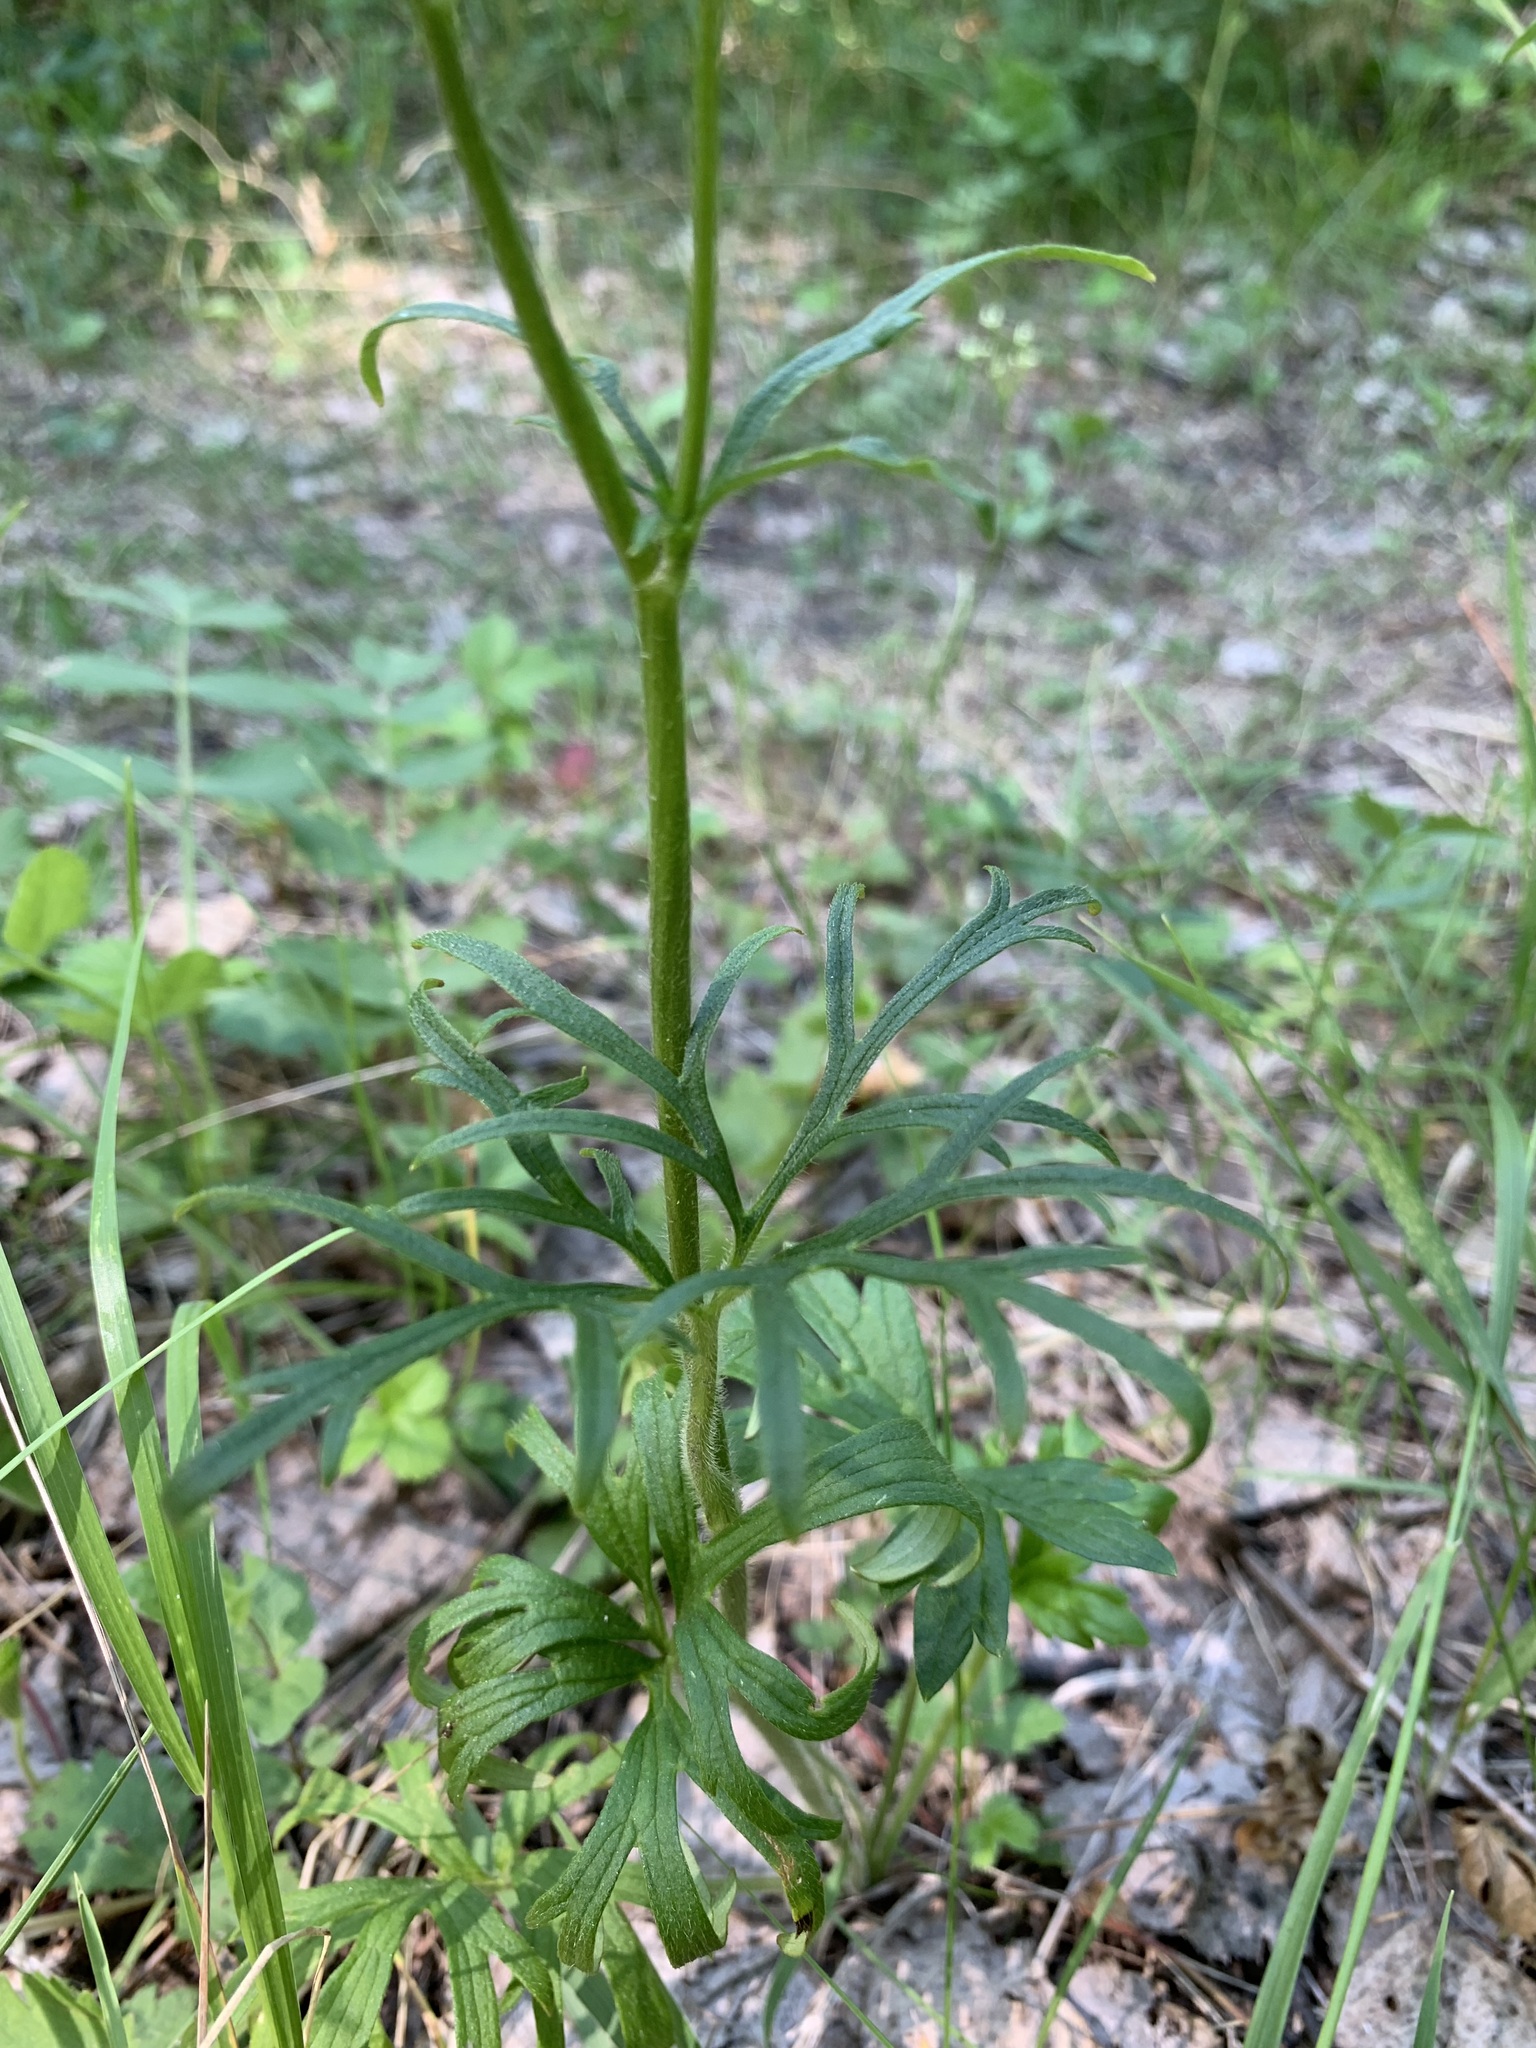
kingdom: Plantae
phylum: Tracheophyta
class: Magnoliopsida
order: Ranunculales
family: Ranunculaceae
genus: Ranunculus
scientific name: Ranunculus polyanthemos
